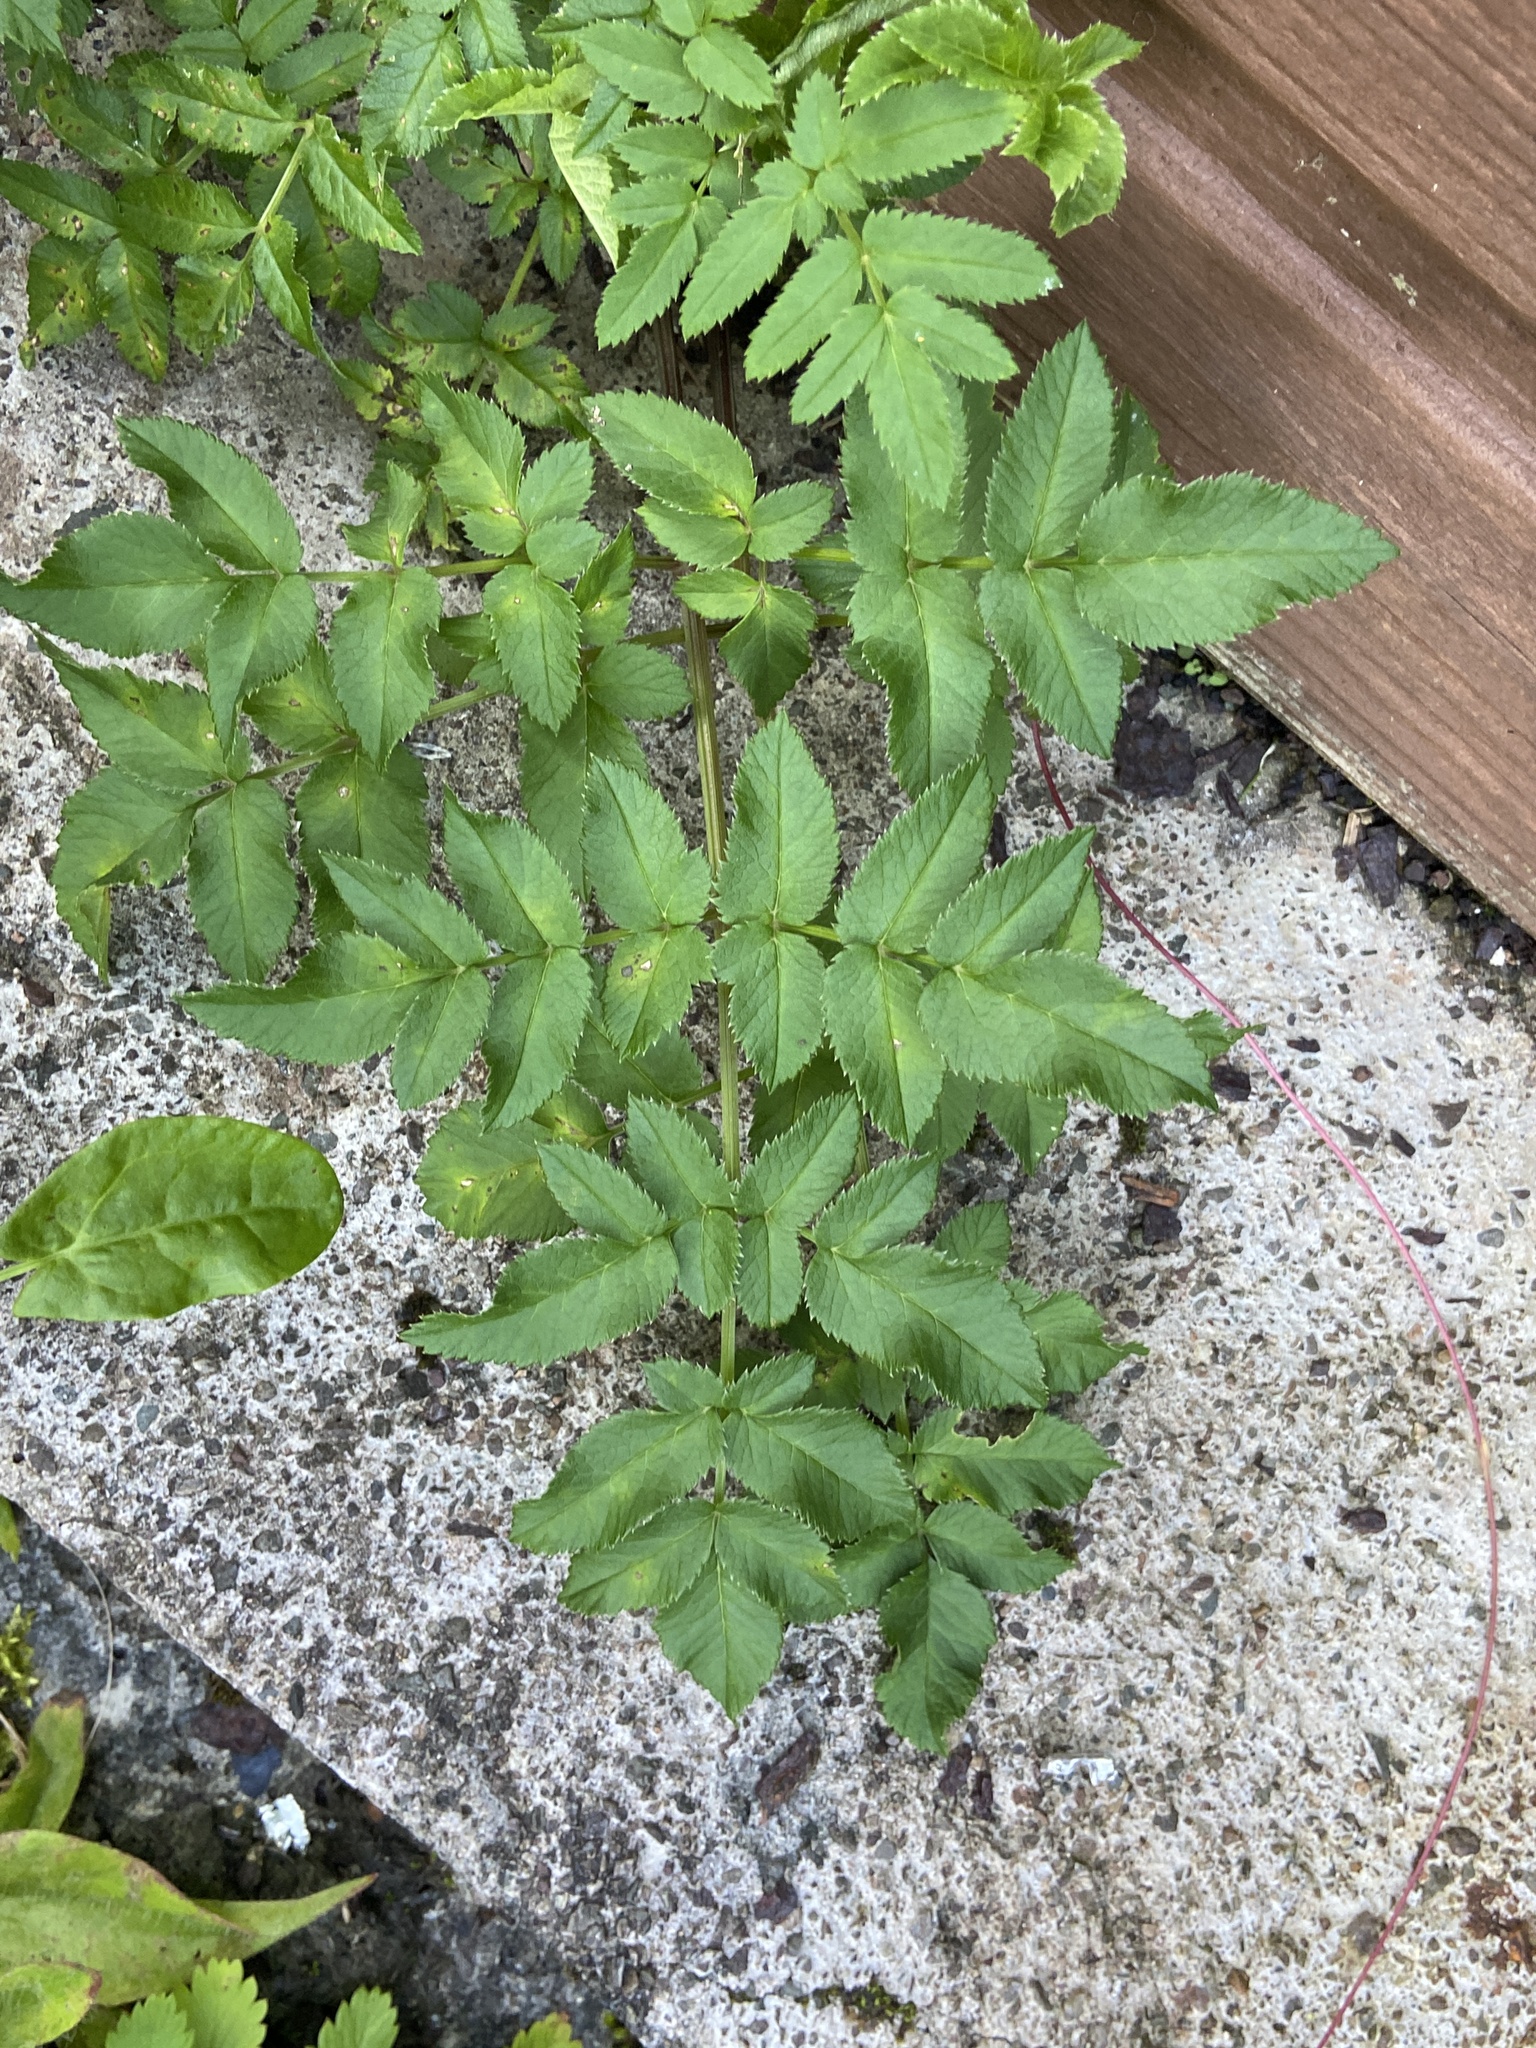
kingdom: Plantae
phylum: Tracheophyta
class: Magnoliopsida
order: Apiales
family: Apiaceae
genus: Angelica
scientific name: Angelica sylvestris
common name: Wild angelica
